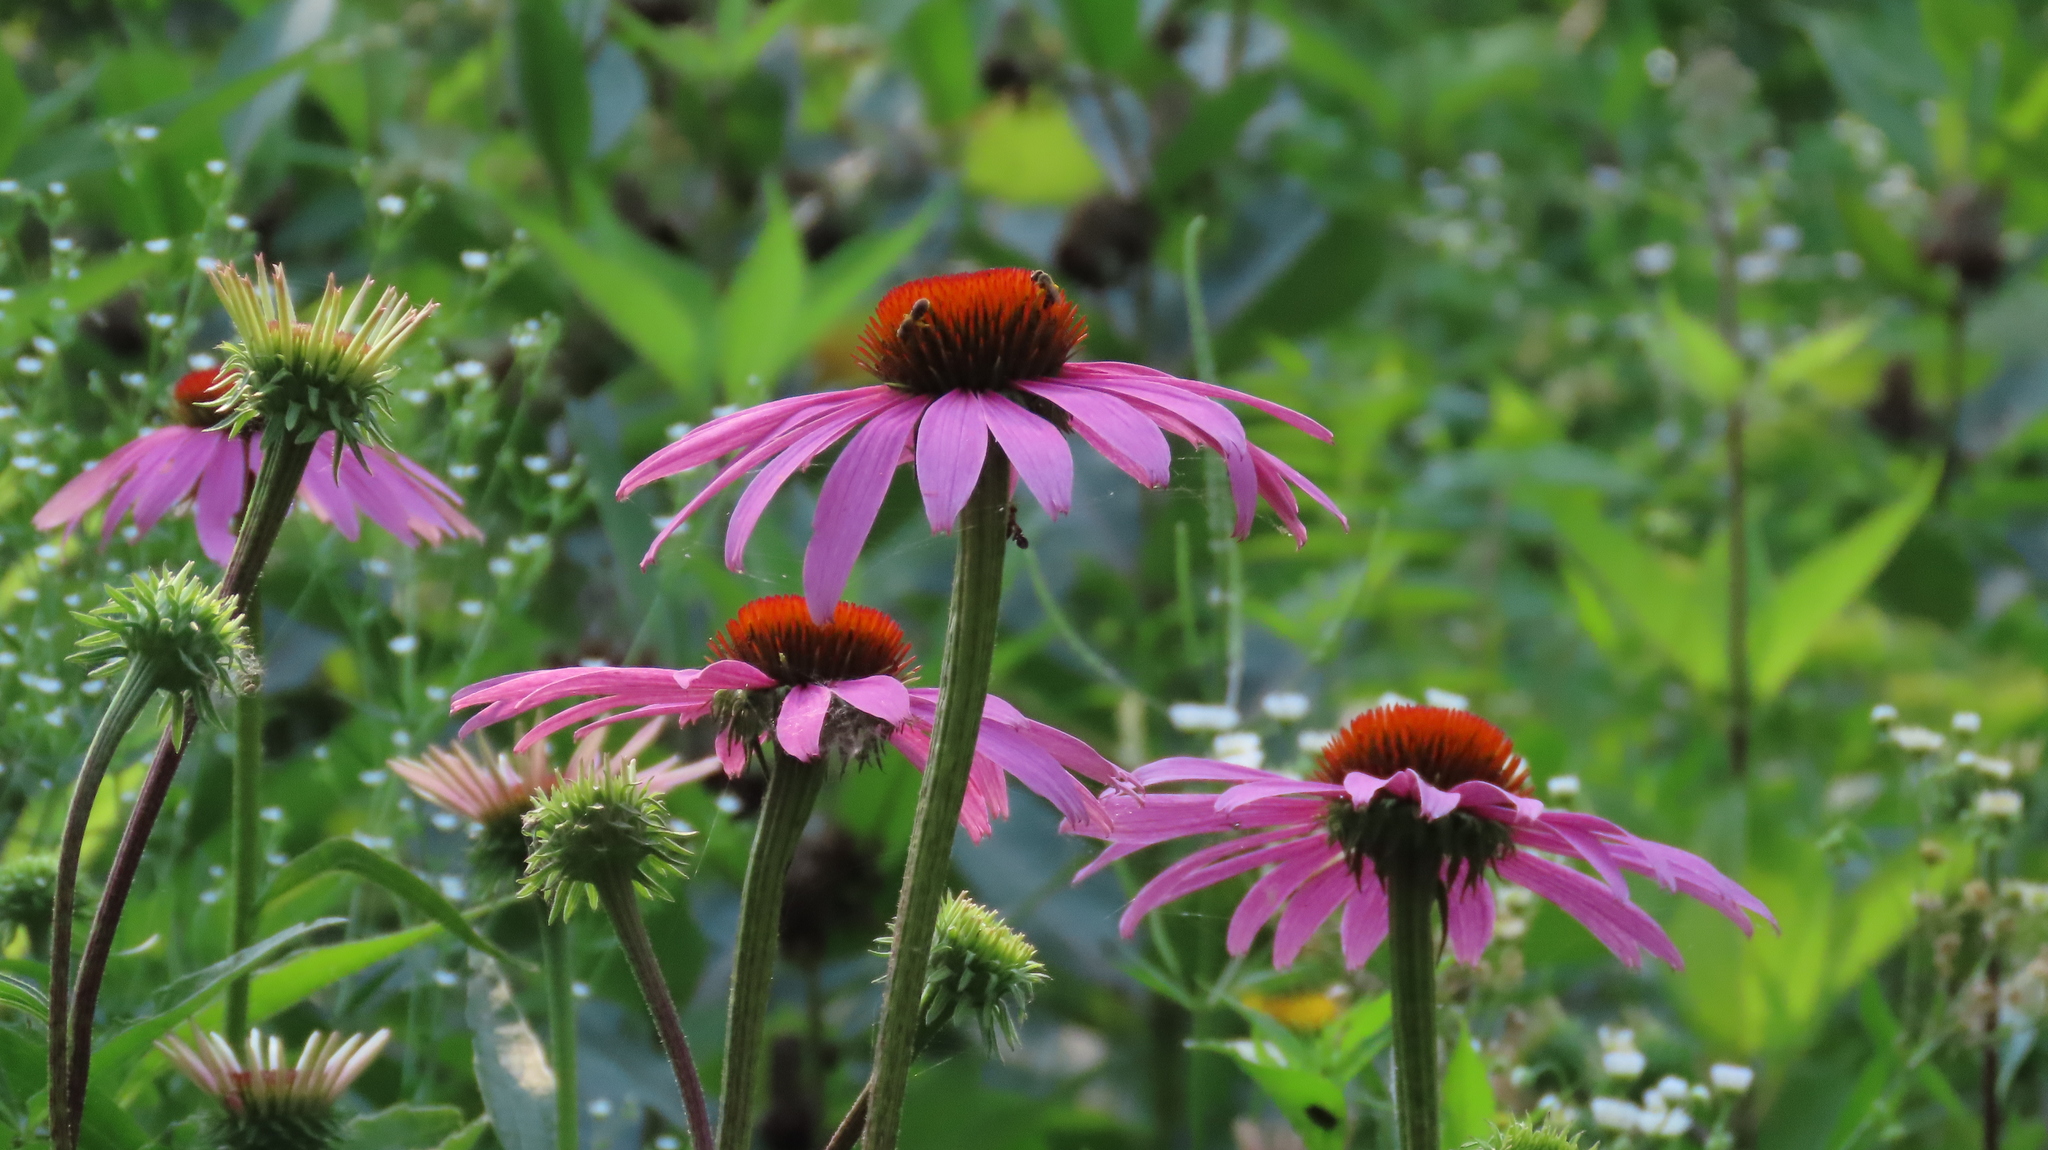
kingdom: Plantae
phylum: Tracheophyta
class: Magnoliopsida
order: Asterales
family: Asteraceae
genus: Echinacea
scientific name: Echinacea purpurea
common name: Broad-leaved purple coneflower
